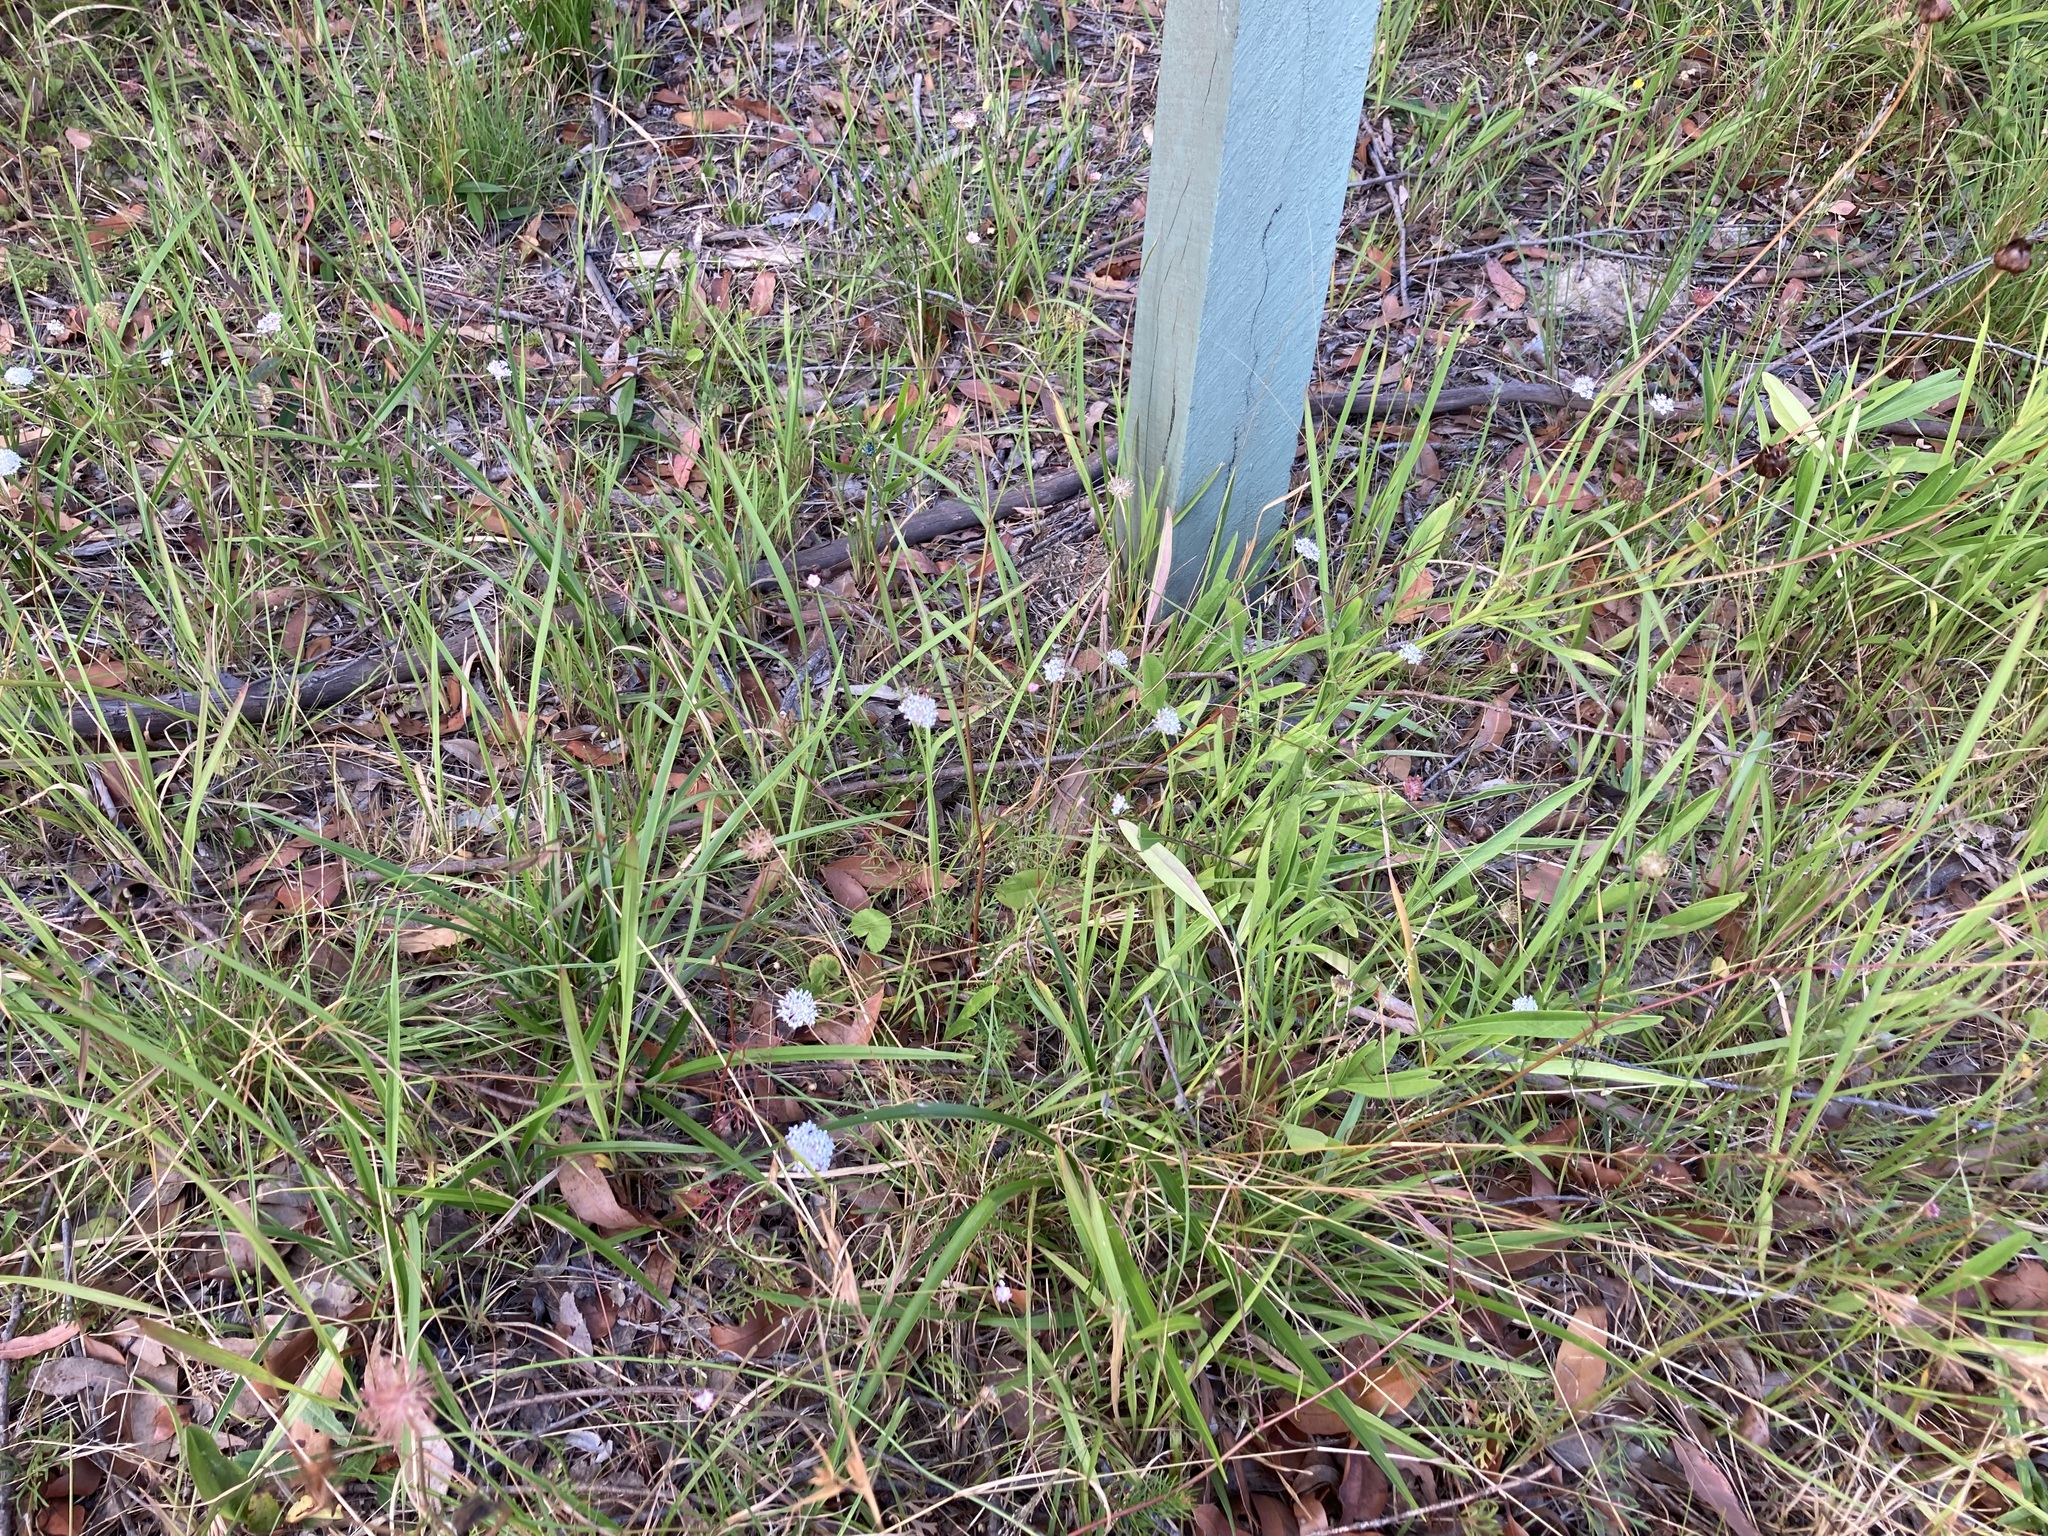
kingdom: Plantae
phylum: Tracheophyta
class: Magnoliopsida
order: Apiales
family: Araliaceae
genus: Trachymene
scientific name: Trachymene incisa
